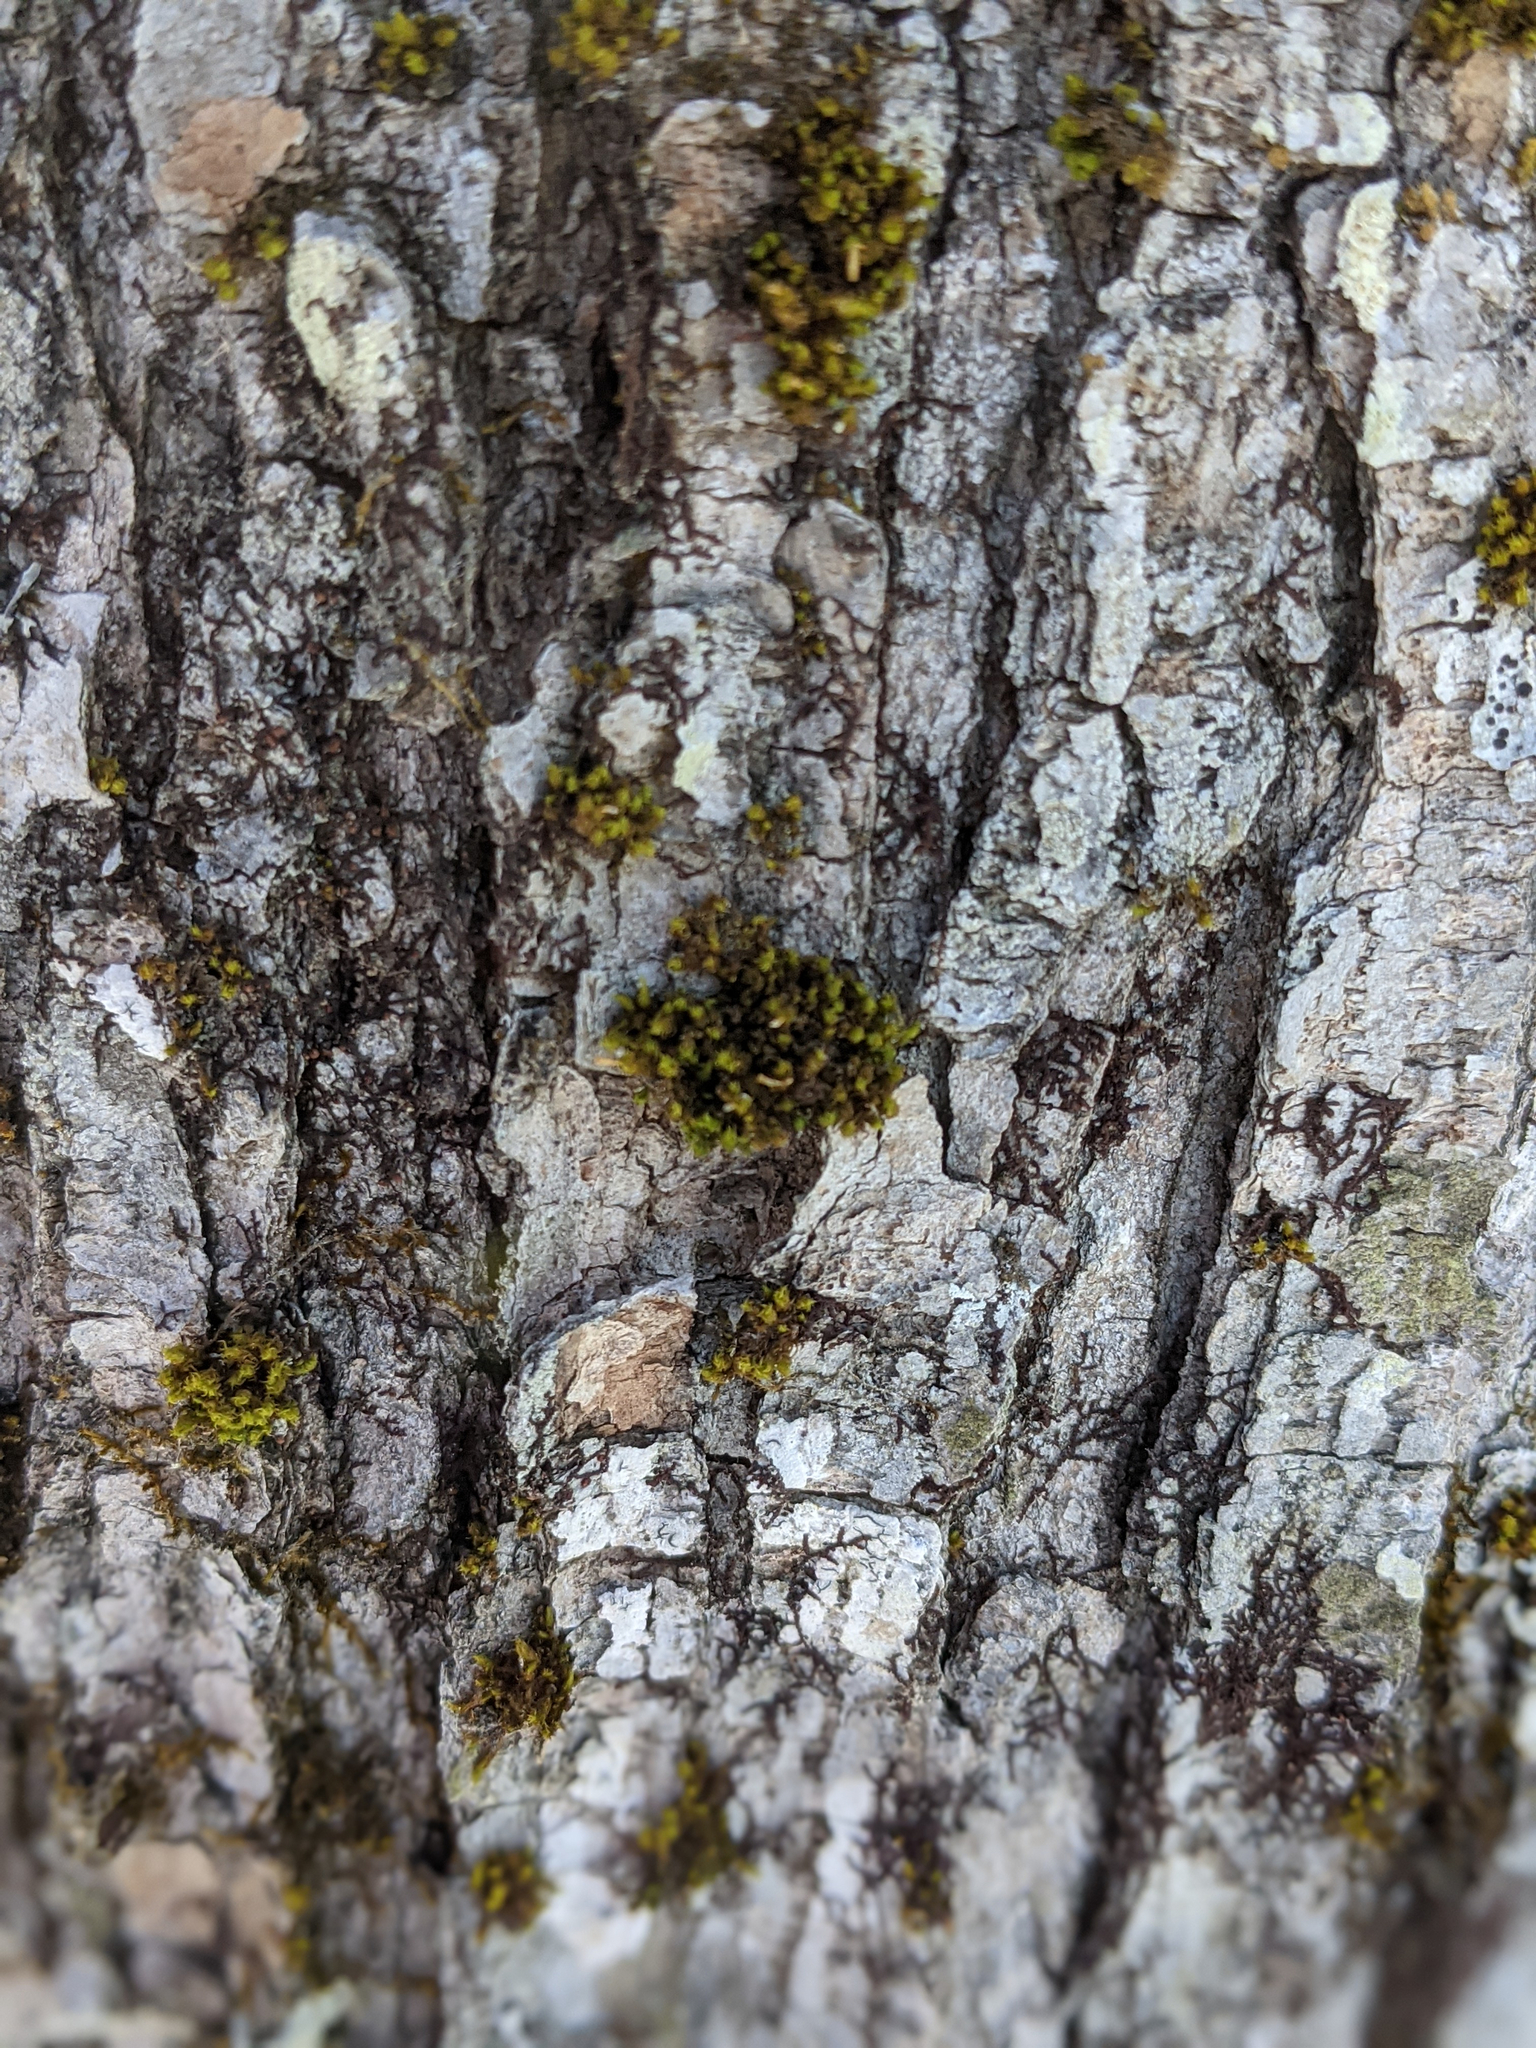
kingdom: Plantae
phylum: Bryophyta
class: Bryopsida
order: Orthotrichales
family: Orthotrichaceae
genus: Ulota
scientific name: Ulota crispa
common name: Crisped pincushion moss
